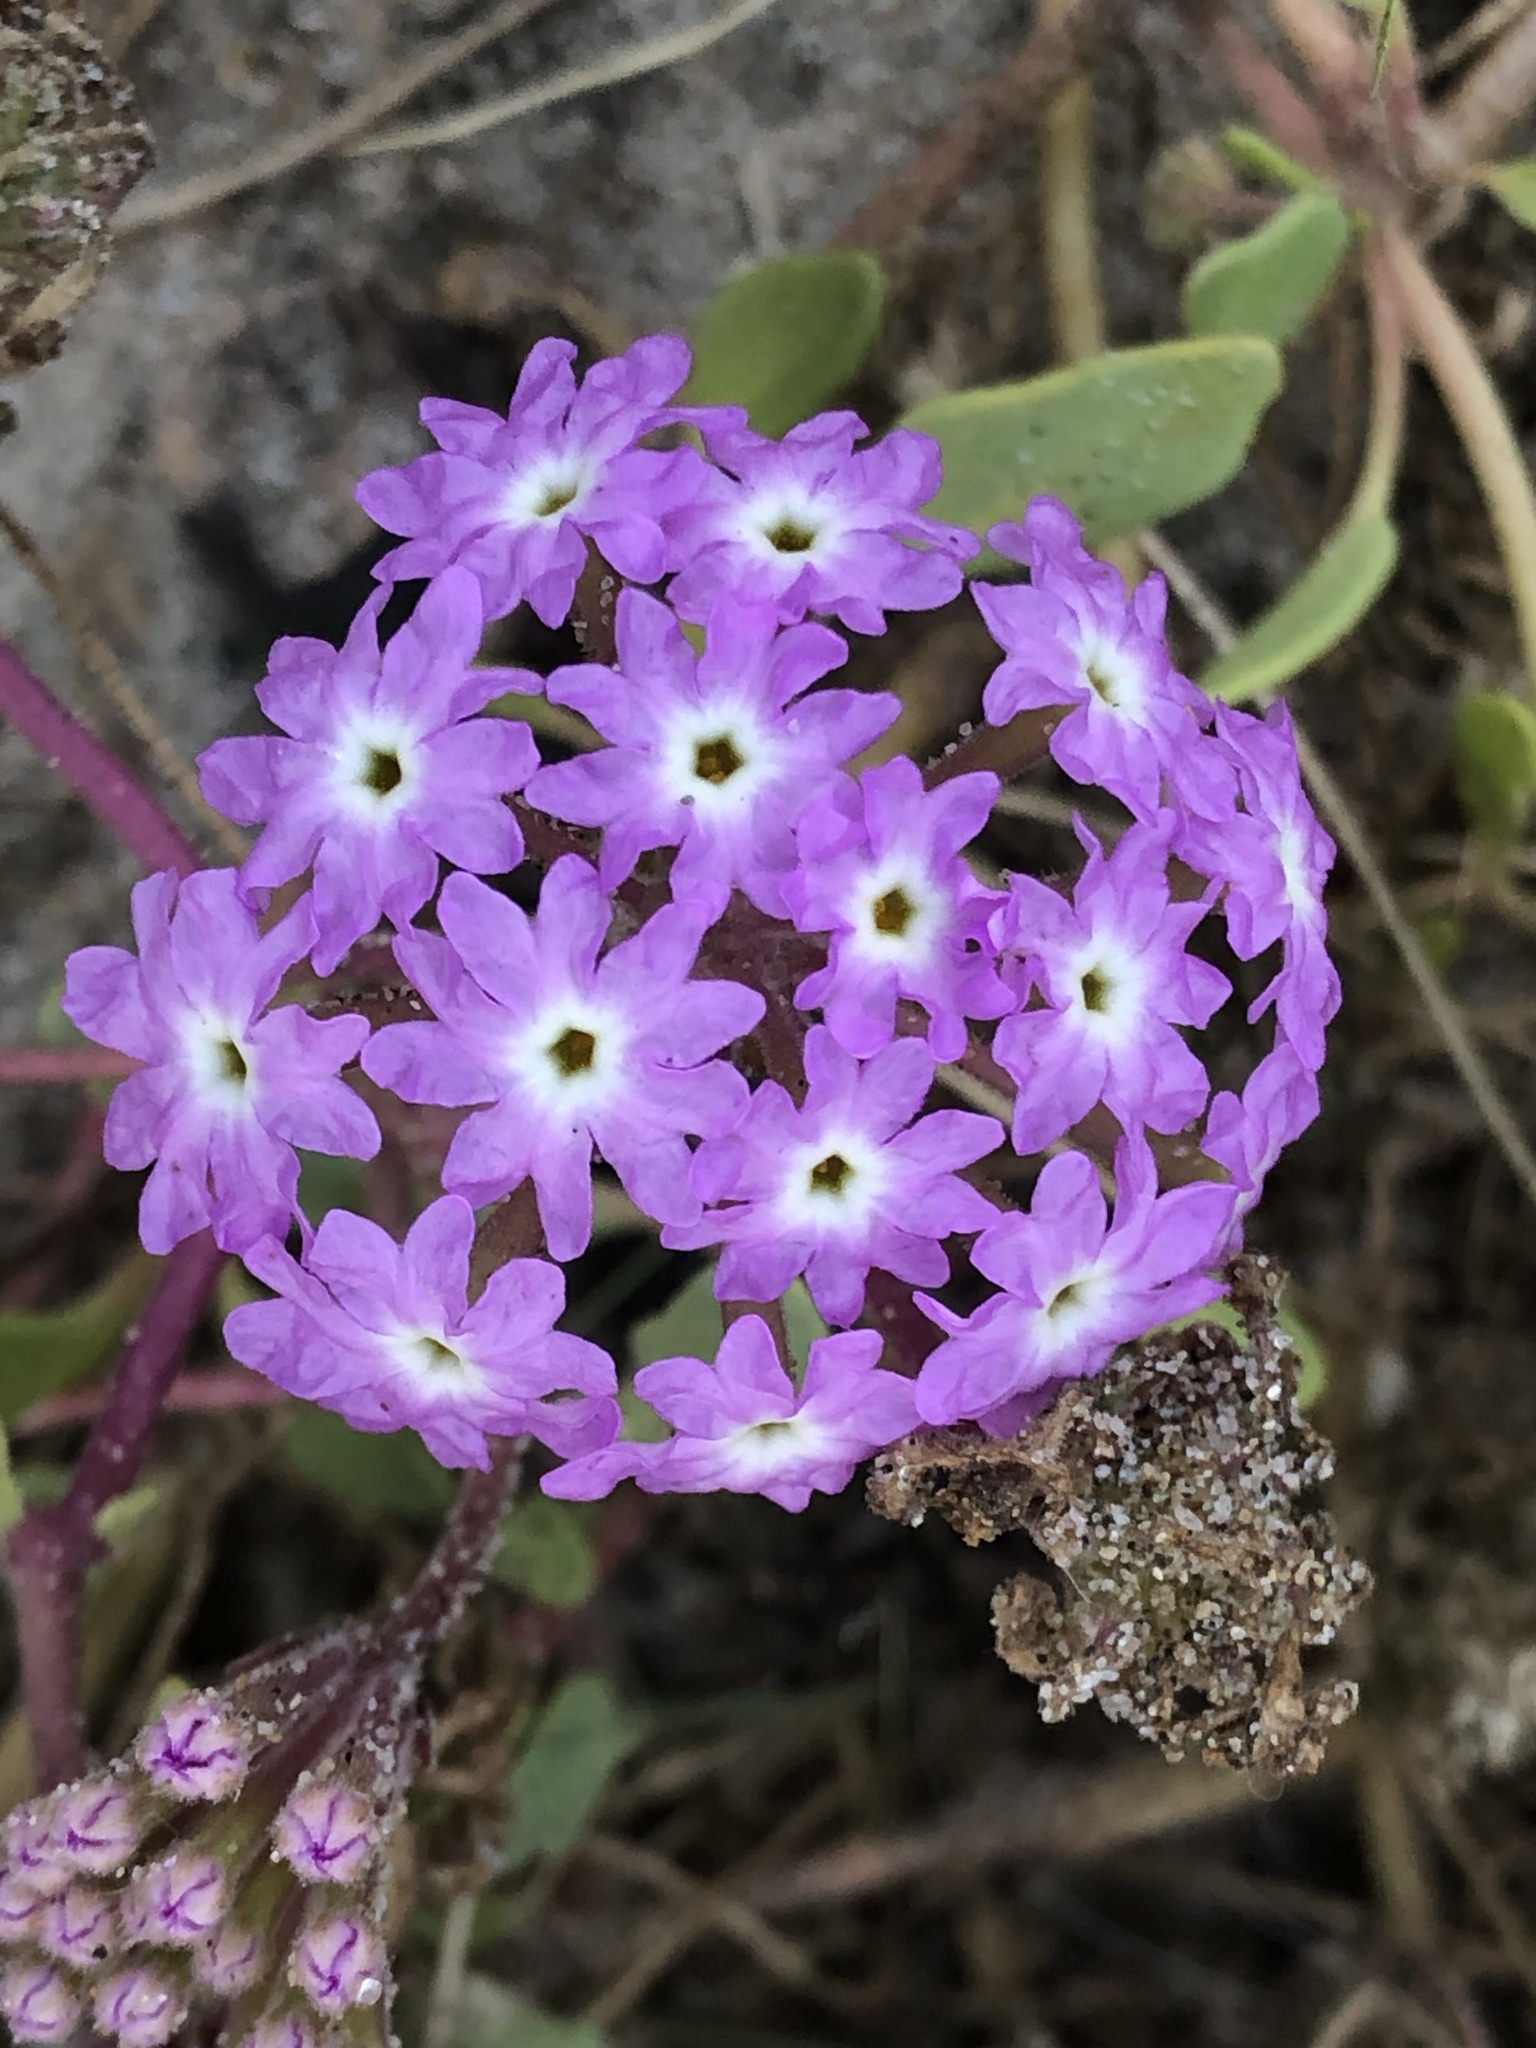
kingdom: Plantae
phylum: Tracheophyta
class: Magnoliopsida
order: Caryophyllales
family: Nyctaginaceae
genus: Abronia
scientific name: Abronia umbellata
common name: Sand-verbena
